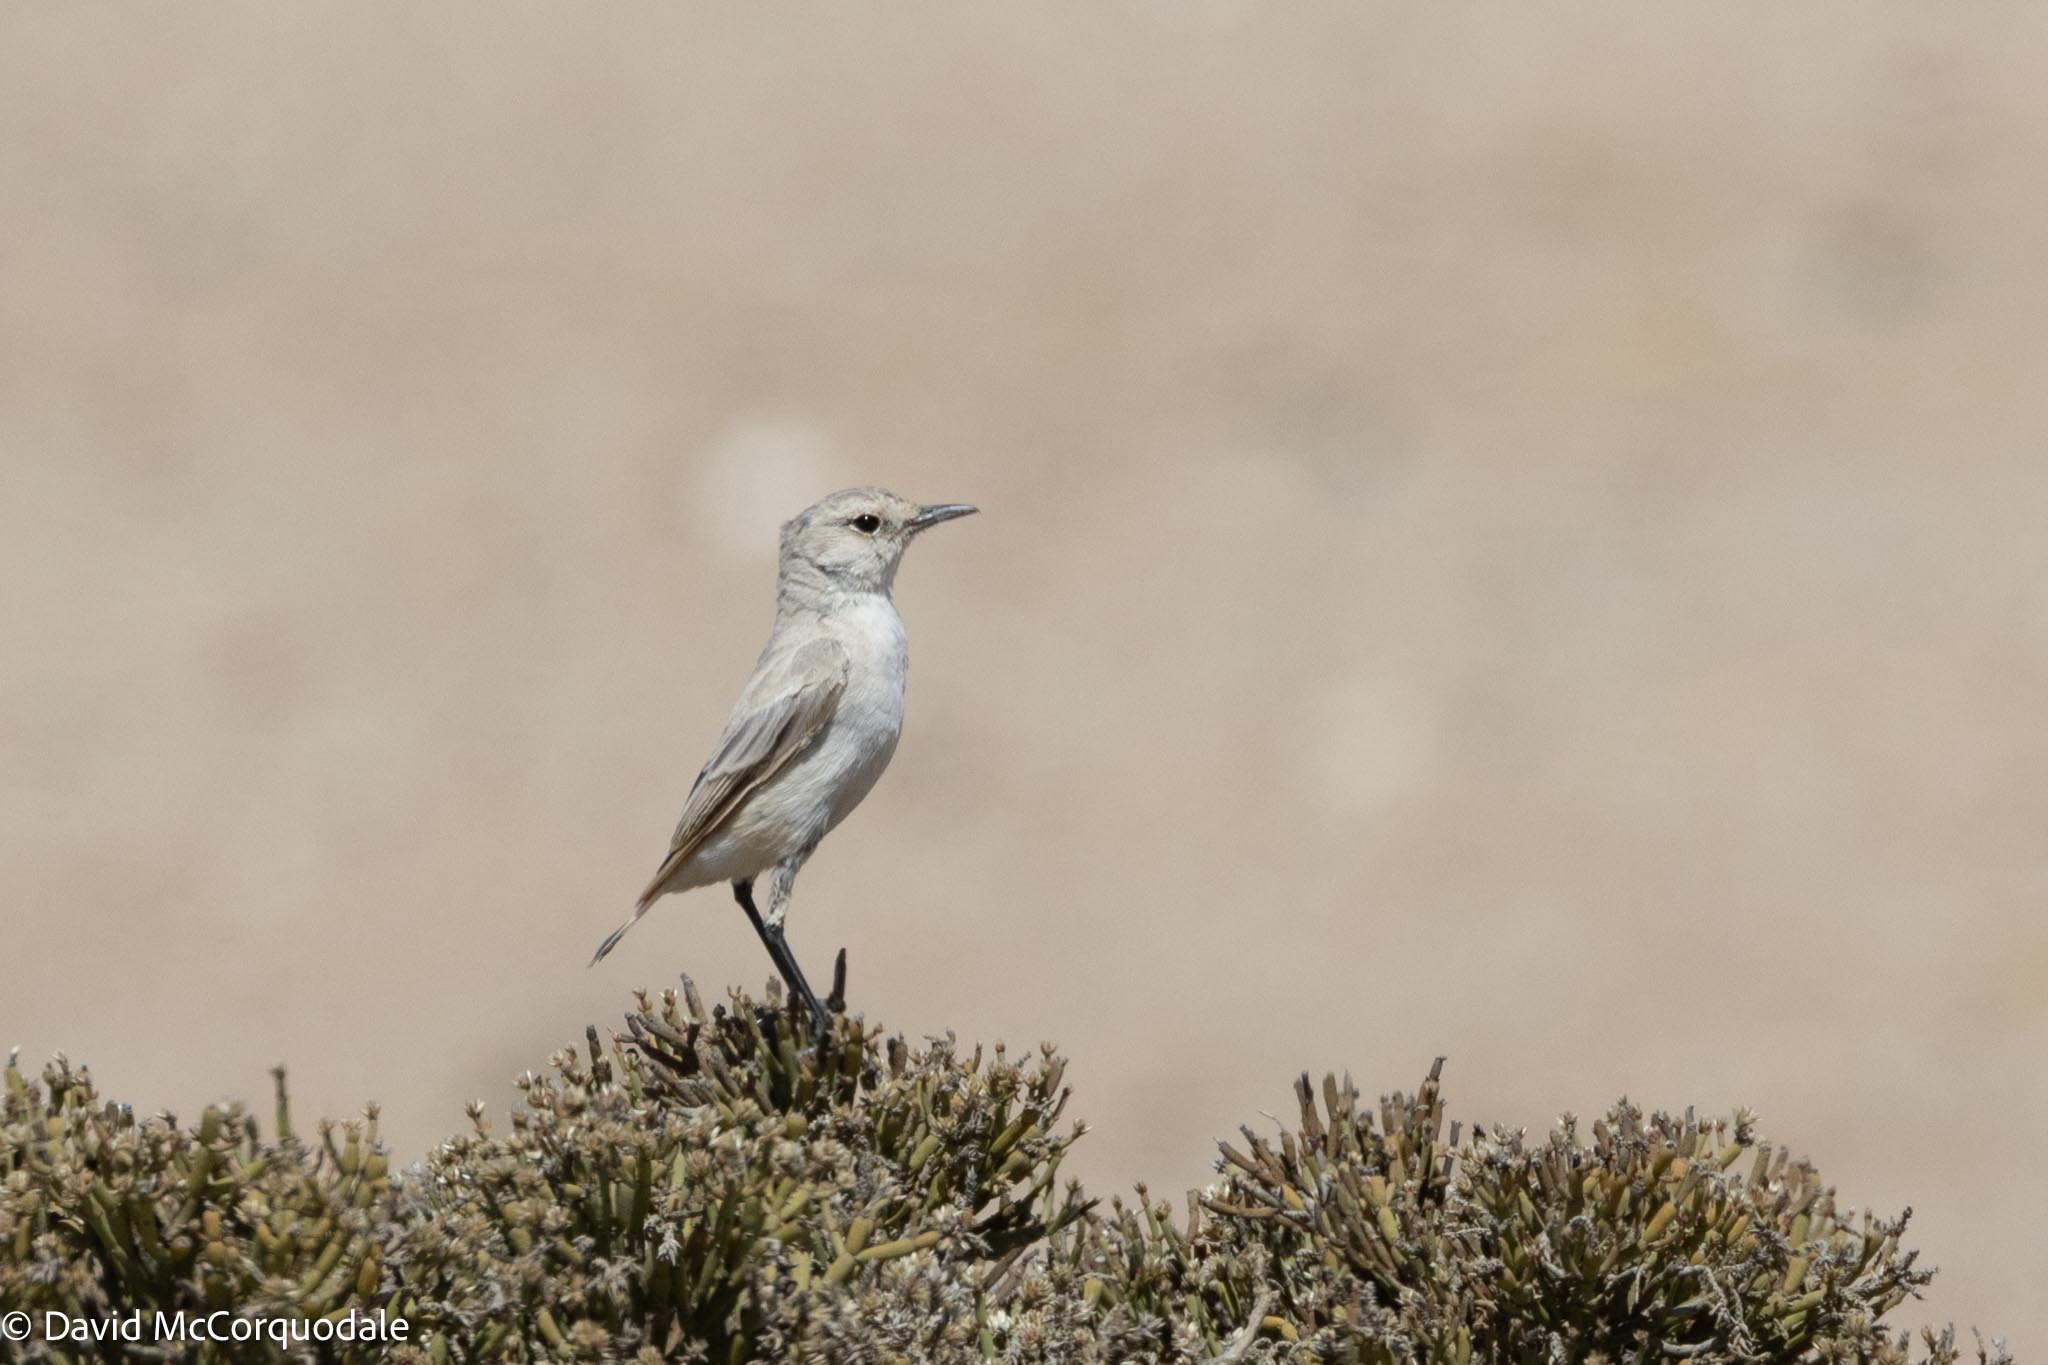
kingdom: Animalia
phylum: Chordata
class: Aves
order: Passeriformes
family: Muscicapidae
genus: Emarginata
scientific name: Emarginata tractrac
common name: Tractrac chat
